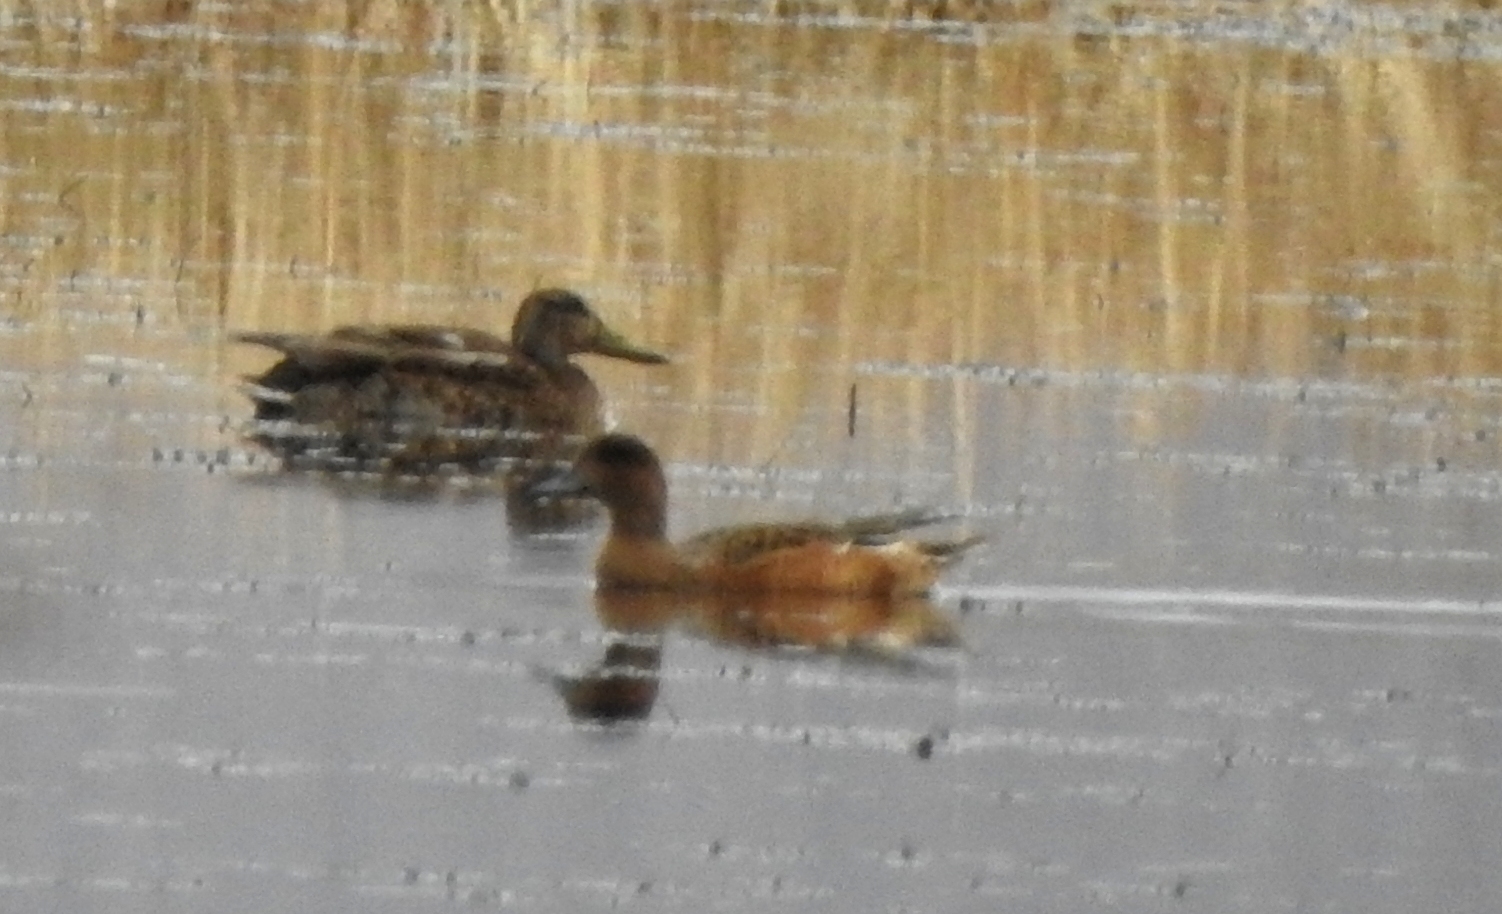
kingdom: Animalia
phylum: Chordata
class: Aves
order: Anseriformes
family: Anatidae
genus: Mareca
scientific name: Mareca penelope
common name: Eurasian wigeon
